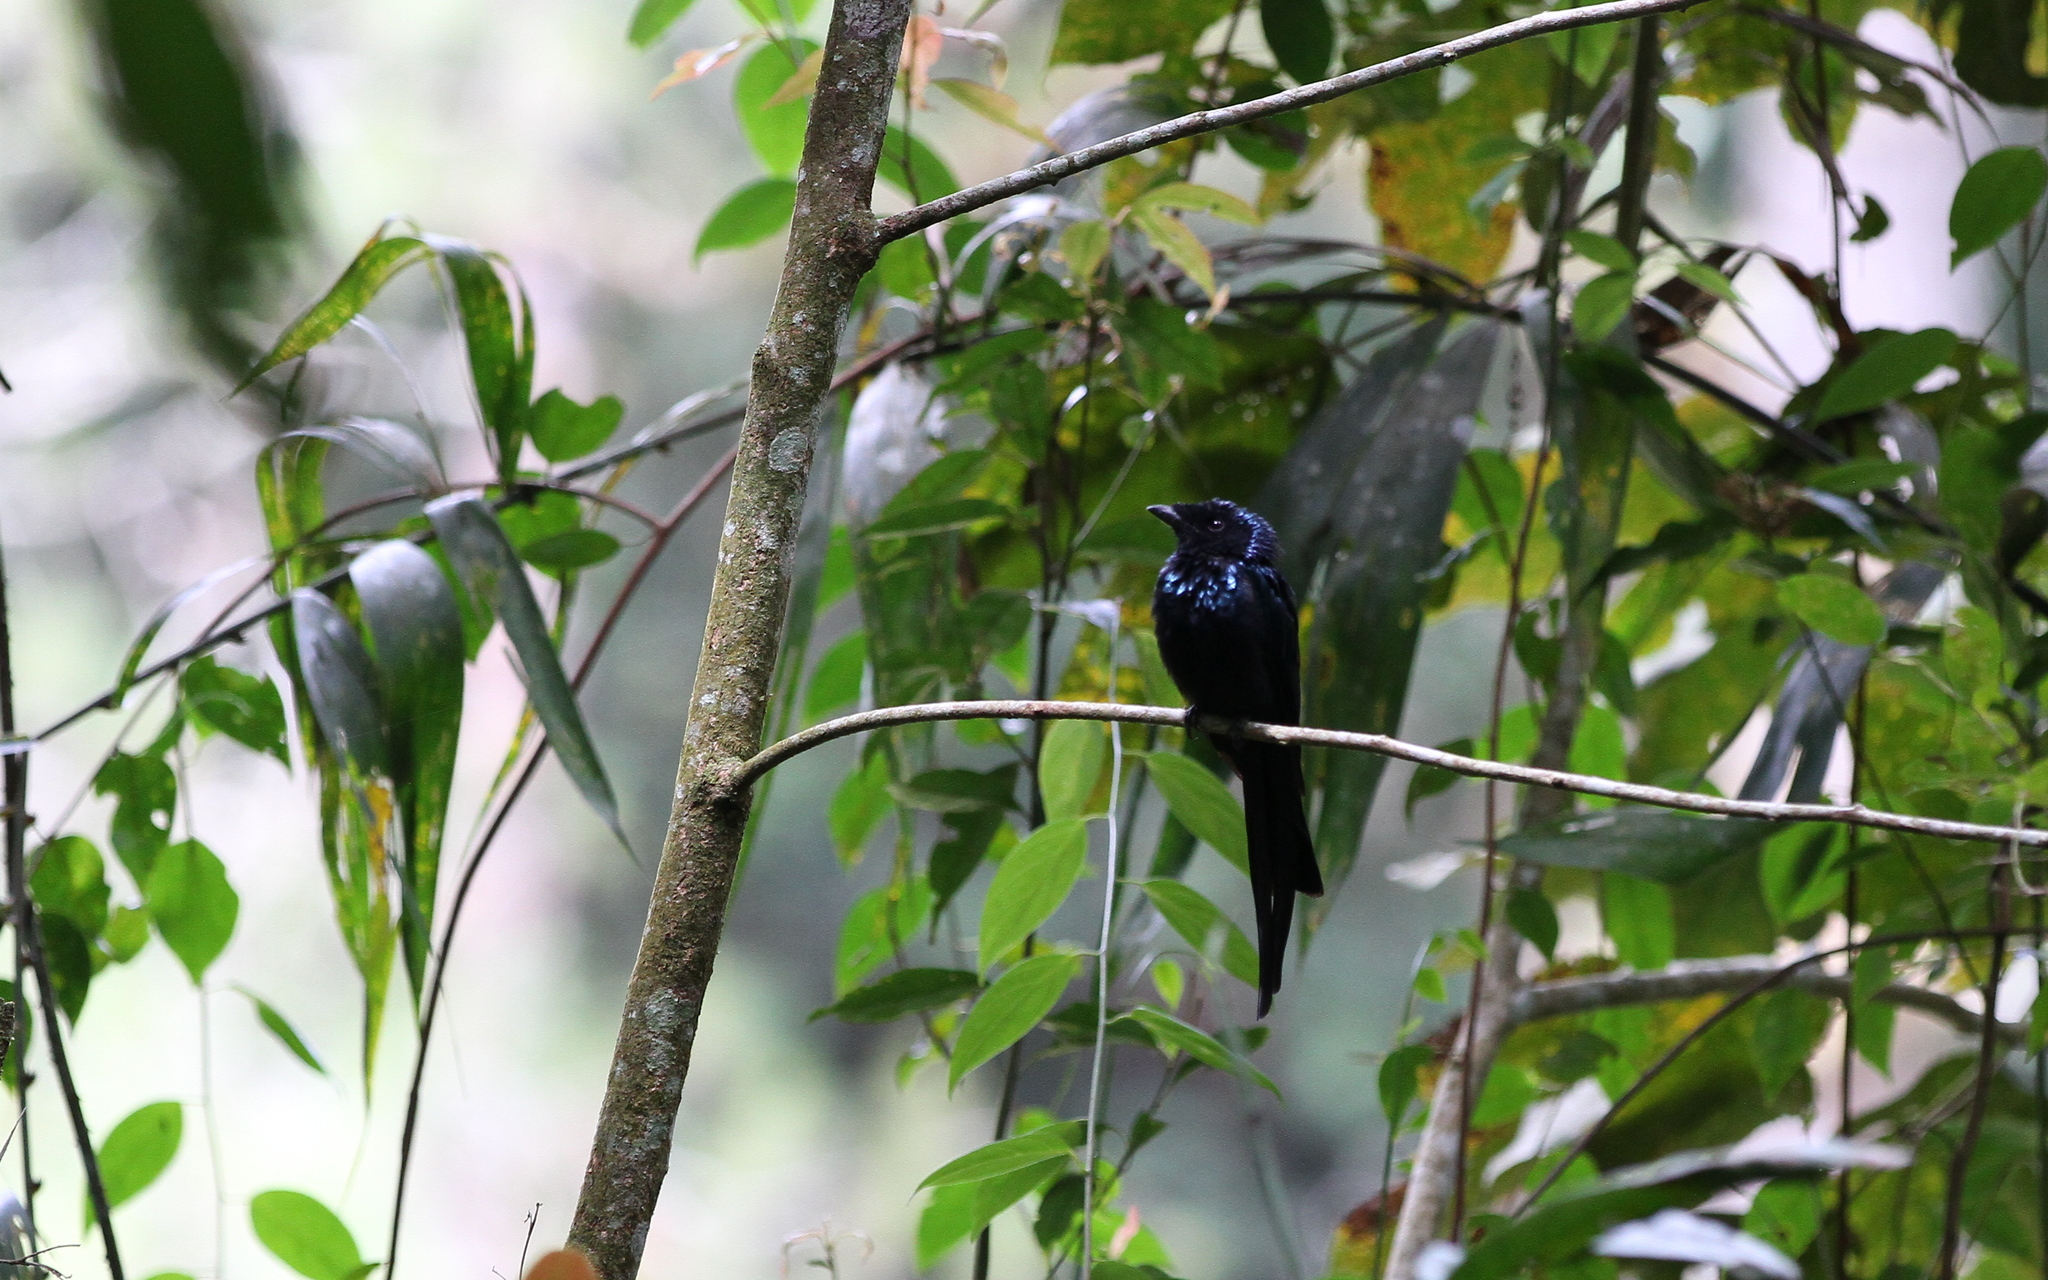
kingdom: Animalia
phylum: Chordata
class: Aves
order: Passeriformes
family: Dicruridae
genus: Dicrurus
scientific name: Dicrurus remifer
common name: Lesser racket-tailed drongo
